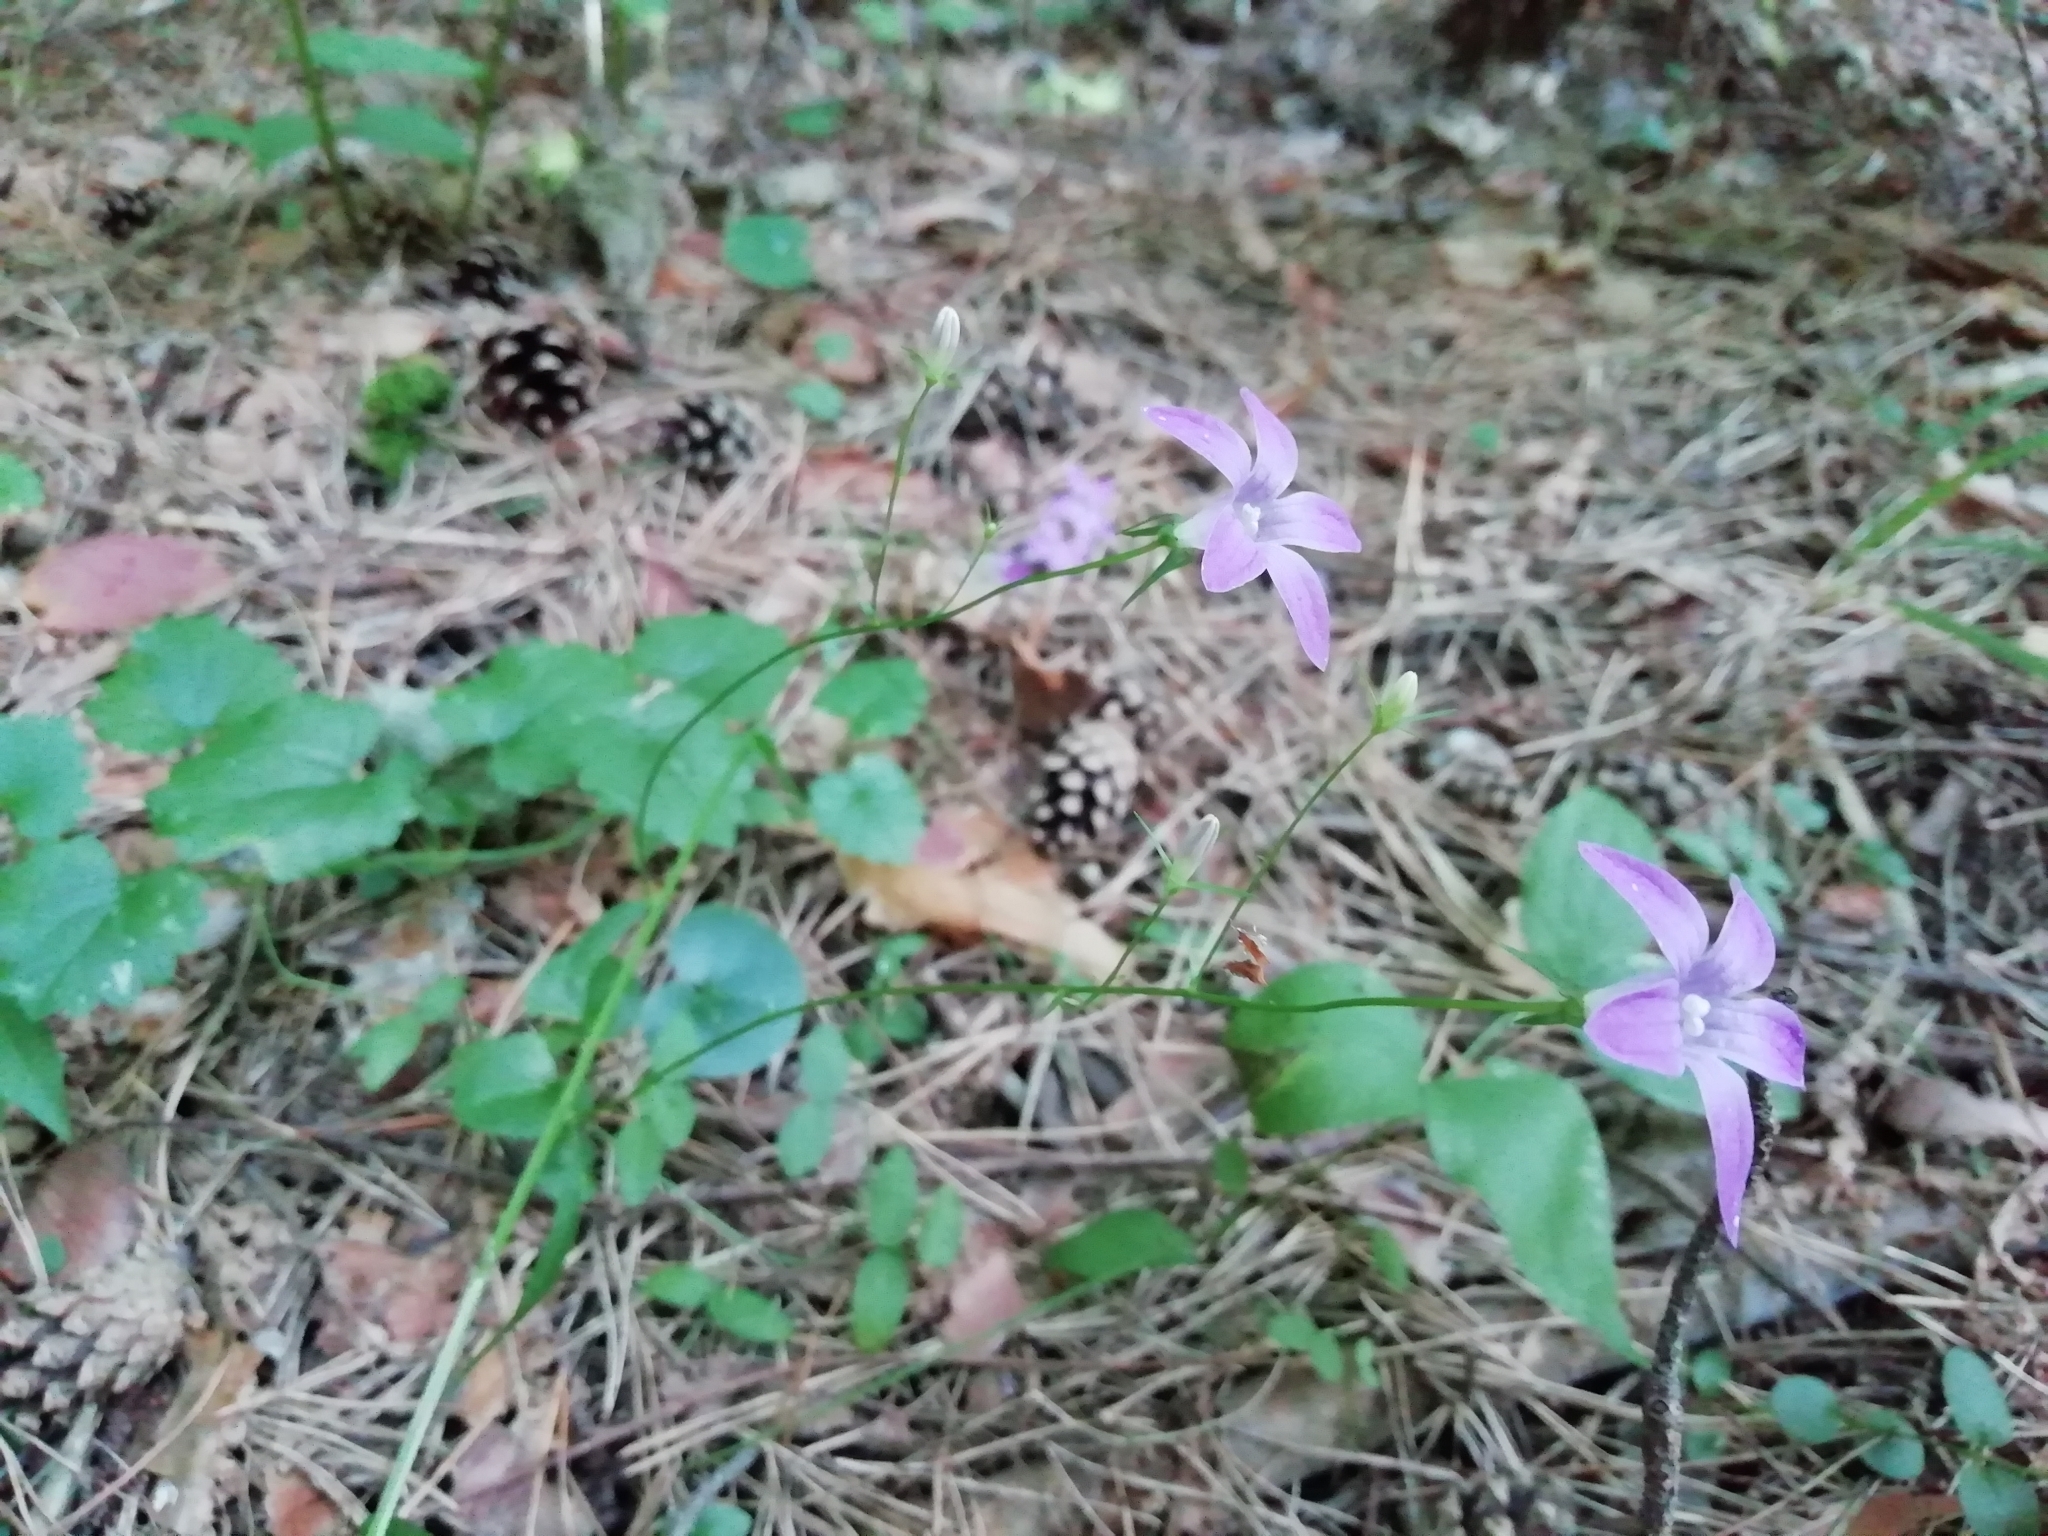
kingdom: Plantae
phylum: Tracheophyta
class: Magnoliopsida
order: Asterales
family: Campanulaceae
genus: Campanula
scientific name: Campanula patula
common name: Spreading bellflower
